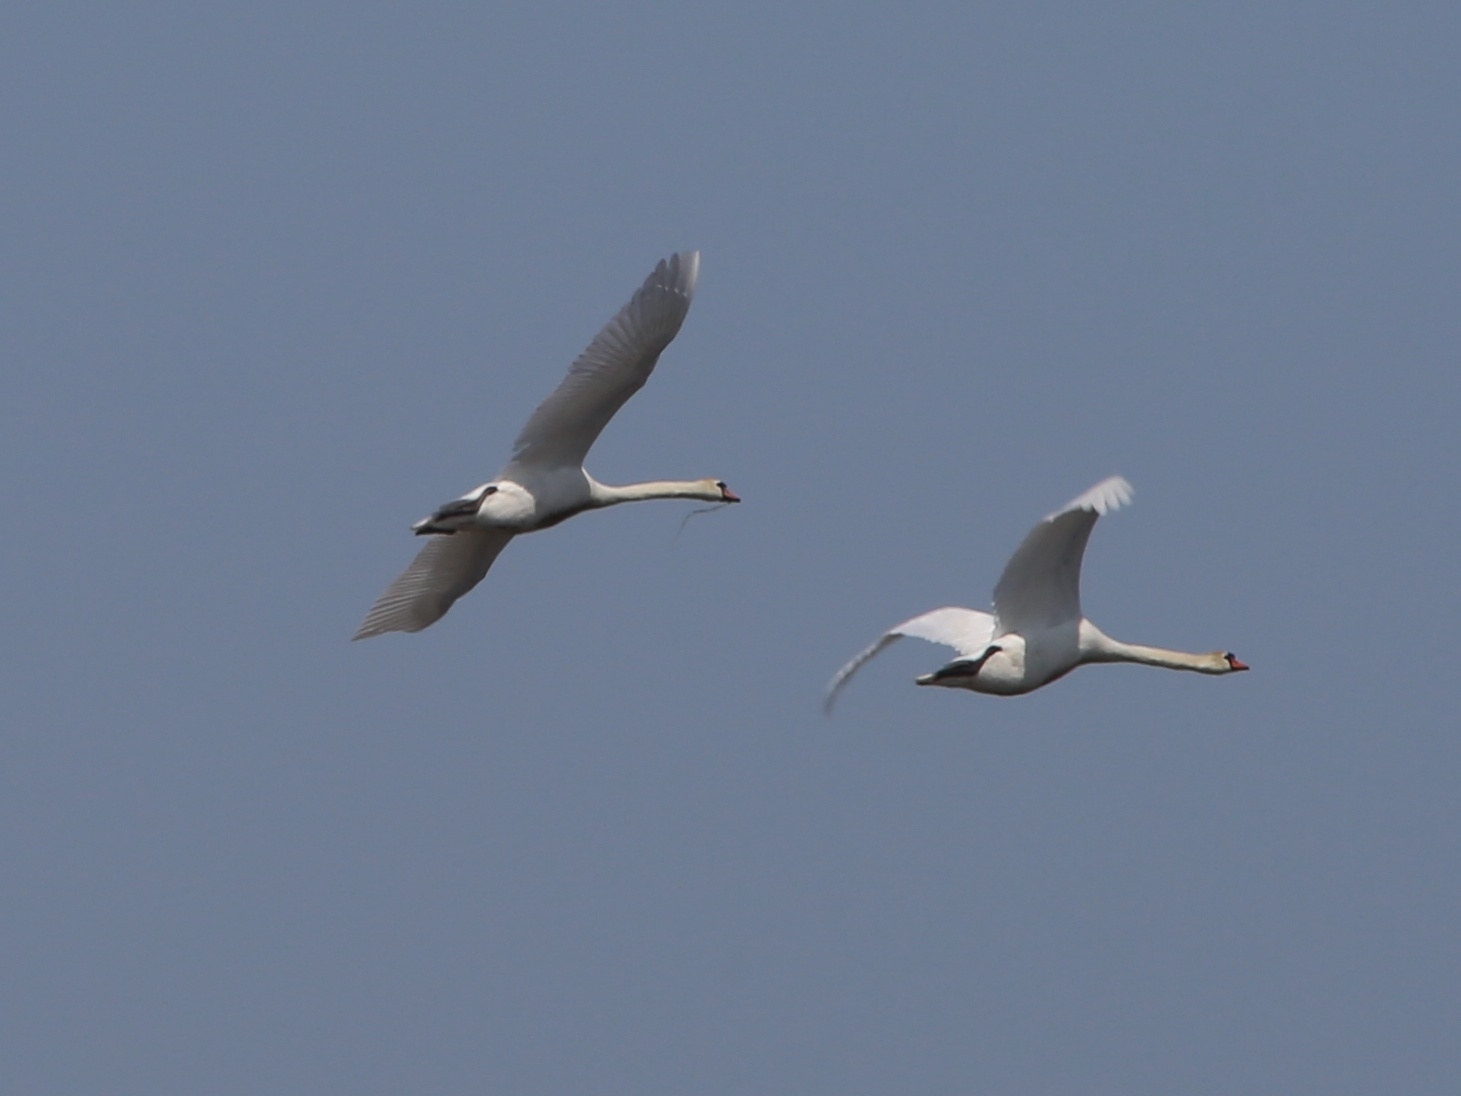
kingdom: Animalia
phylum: Chordata
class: Aves
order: Anseriformes
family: Anatidae
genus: Cygnus
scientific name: Cygnus olor
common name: Mute swan
